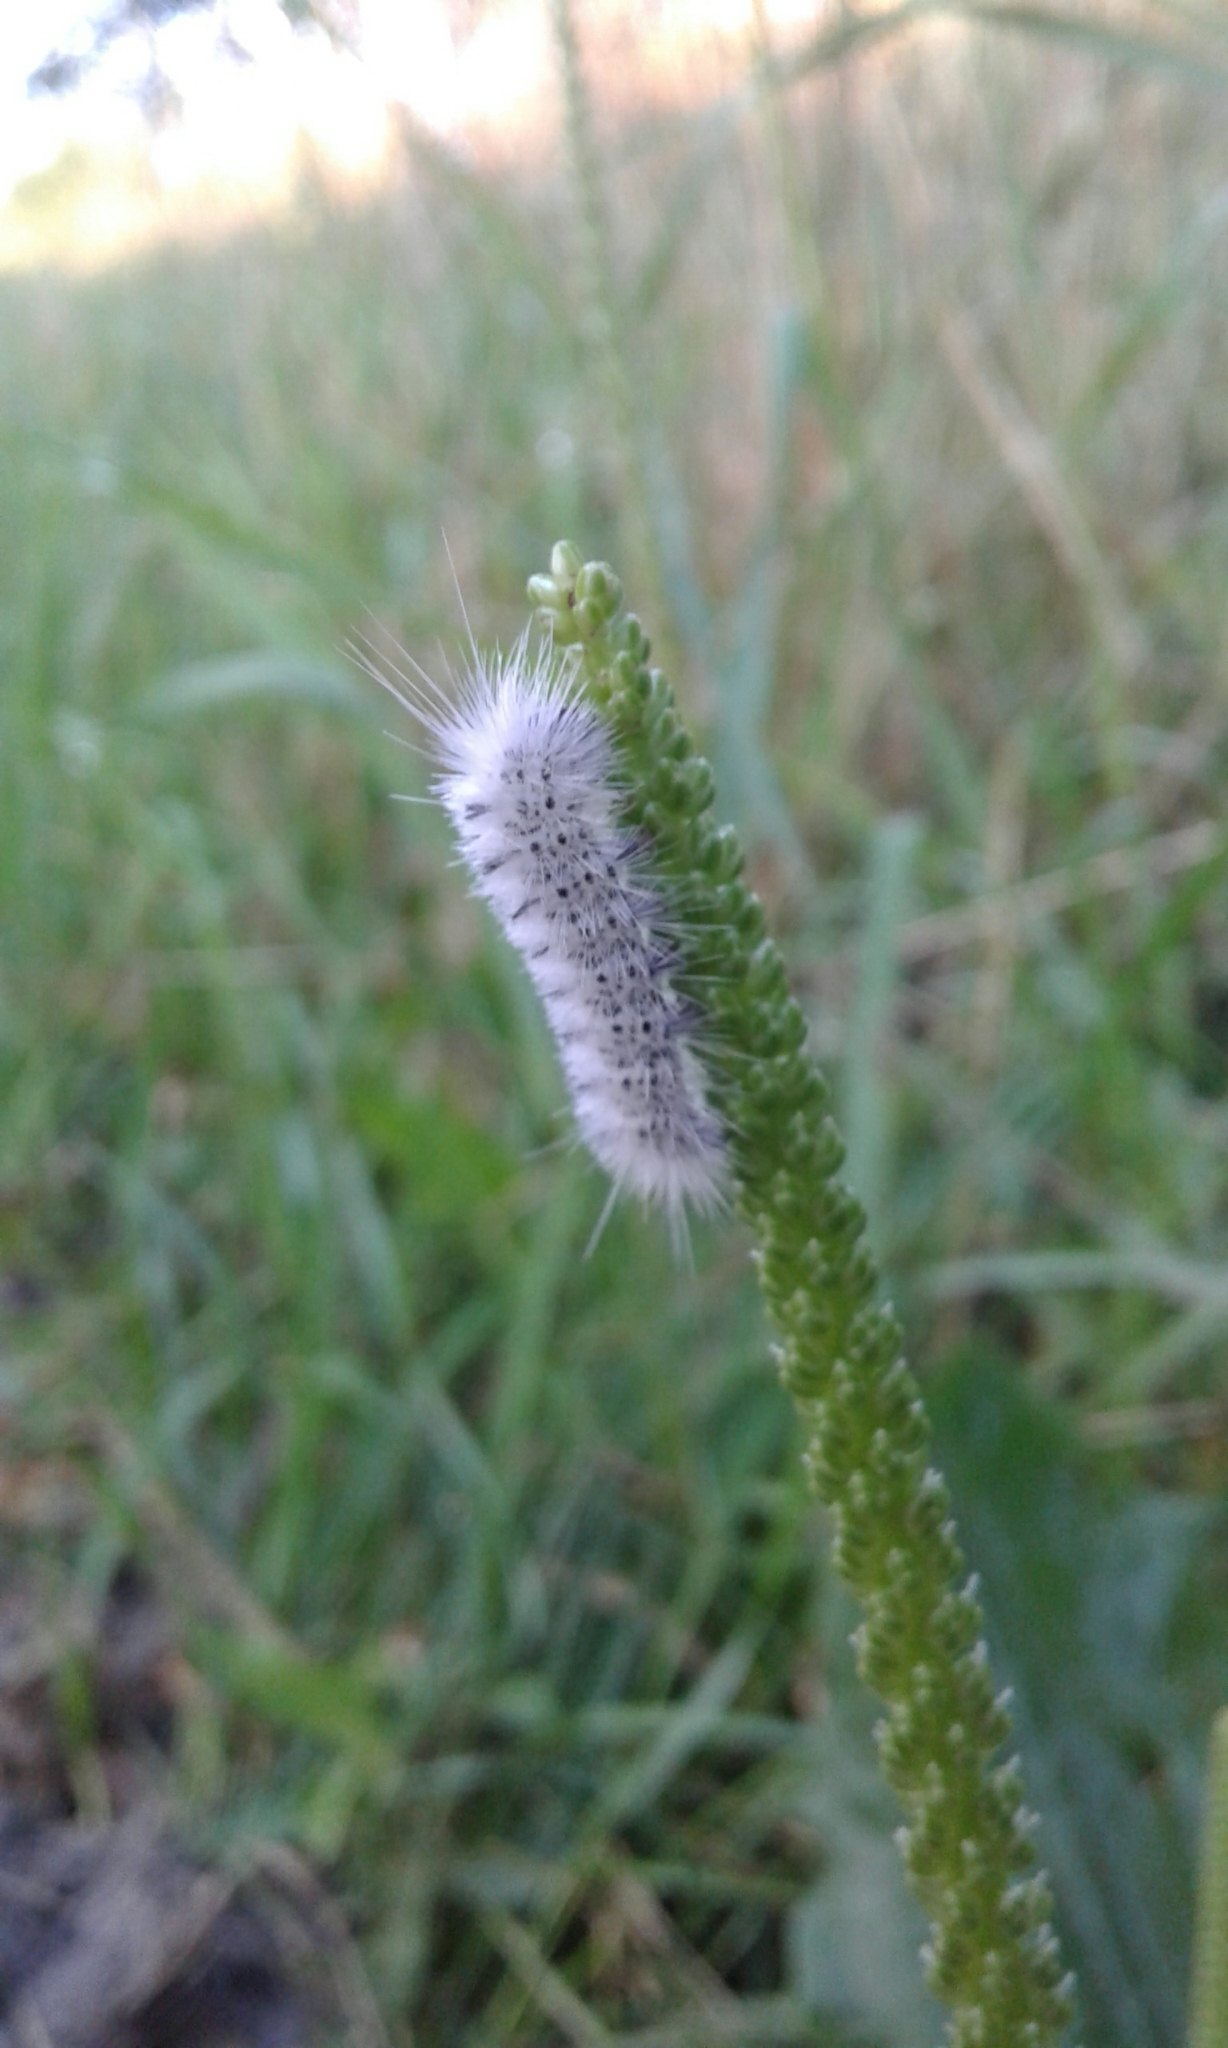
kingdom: Animalia
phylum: Arthropoda
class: Insecta
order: Lepidoptera
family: Erebidae
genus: Lophocampa
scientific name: Lophocampa caryae
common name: Hickory tussock moth
